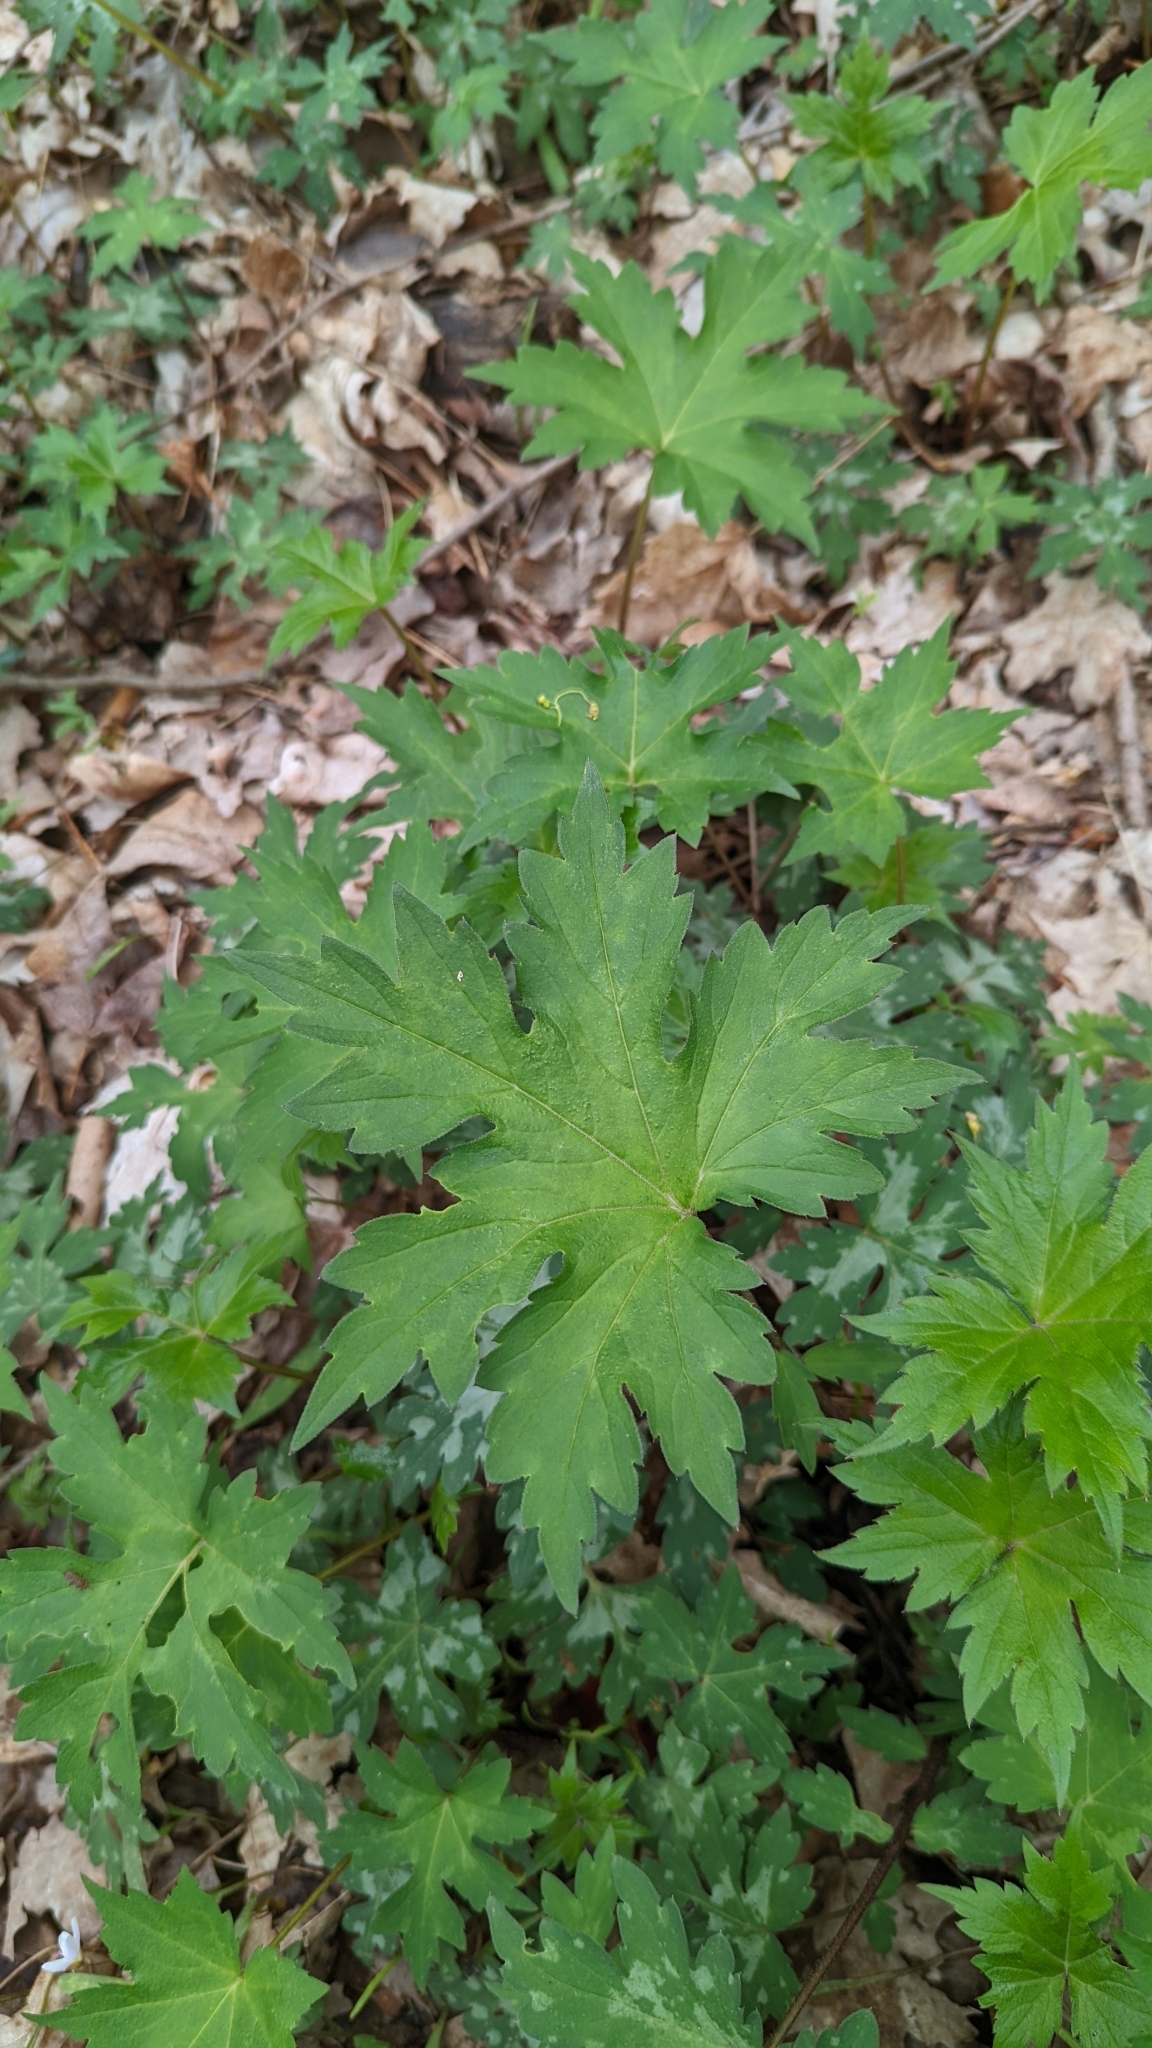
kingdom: Plantae
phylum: Tracheophyta
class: Magnoliopsida
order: Boraginales
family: Hydrophyllaceae
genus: Hydrophyllum
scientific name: Hydrophyllum canadense
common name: Canada waterleaf
